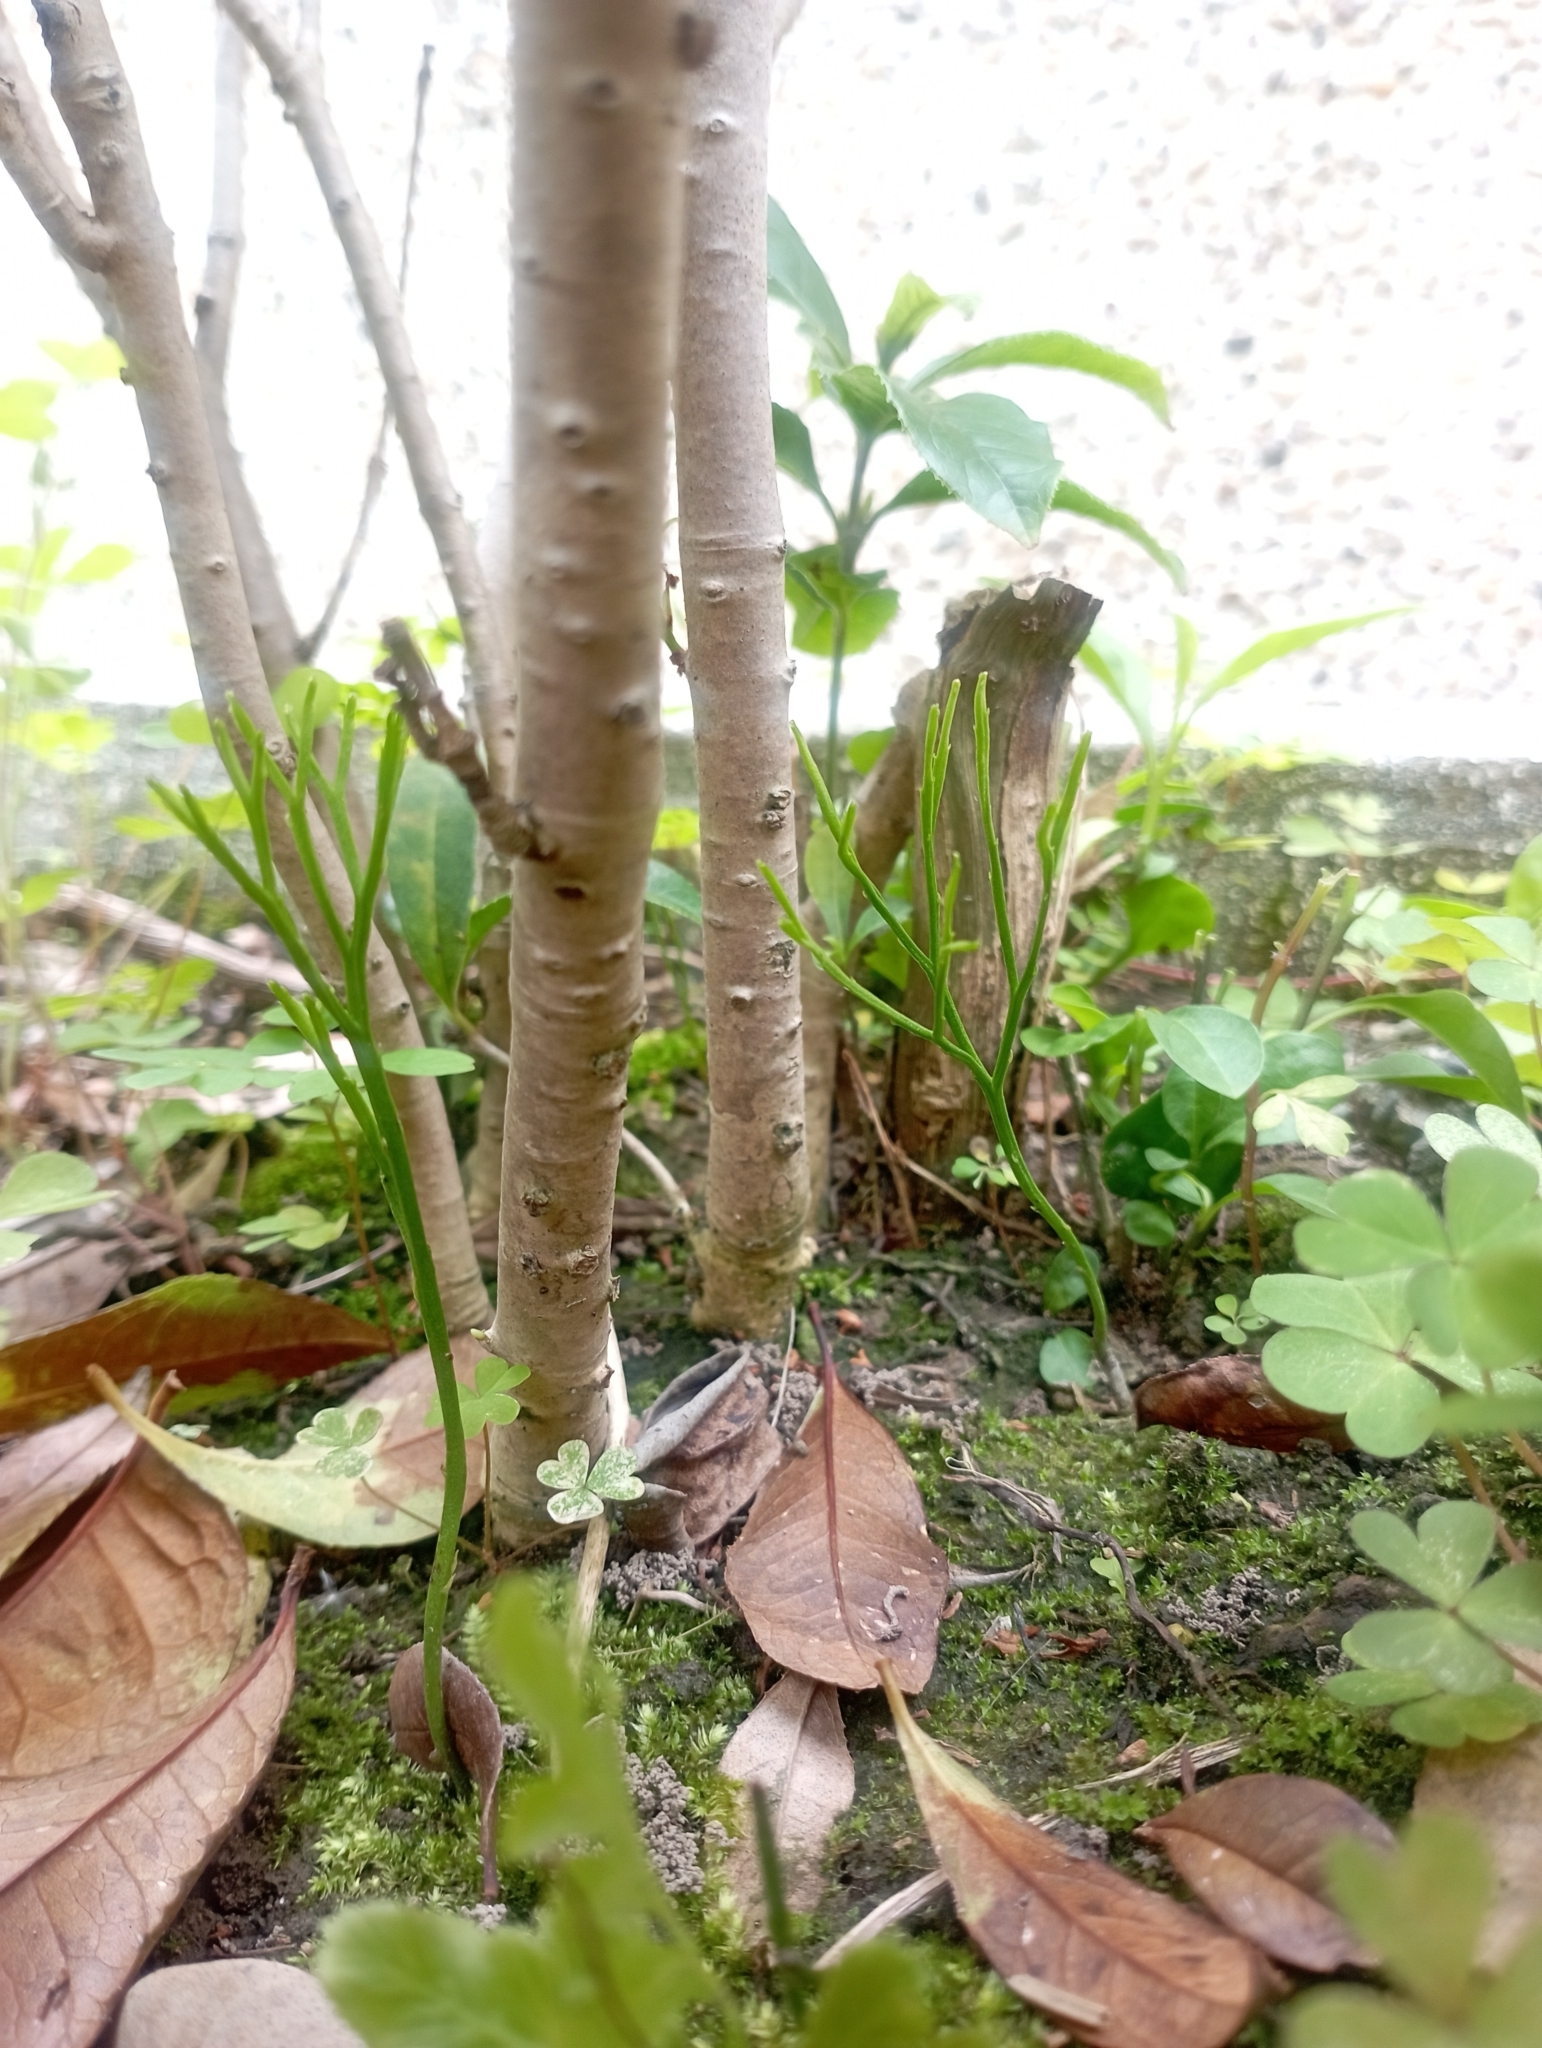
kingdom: Plantae
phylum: Tracheophyta
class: Polypodiopsida
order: Psilotales
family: Psilotaceae
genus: Psilotum
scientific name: Psilotum nudum
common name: Skeleton fork fern
